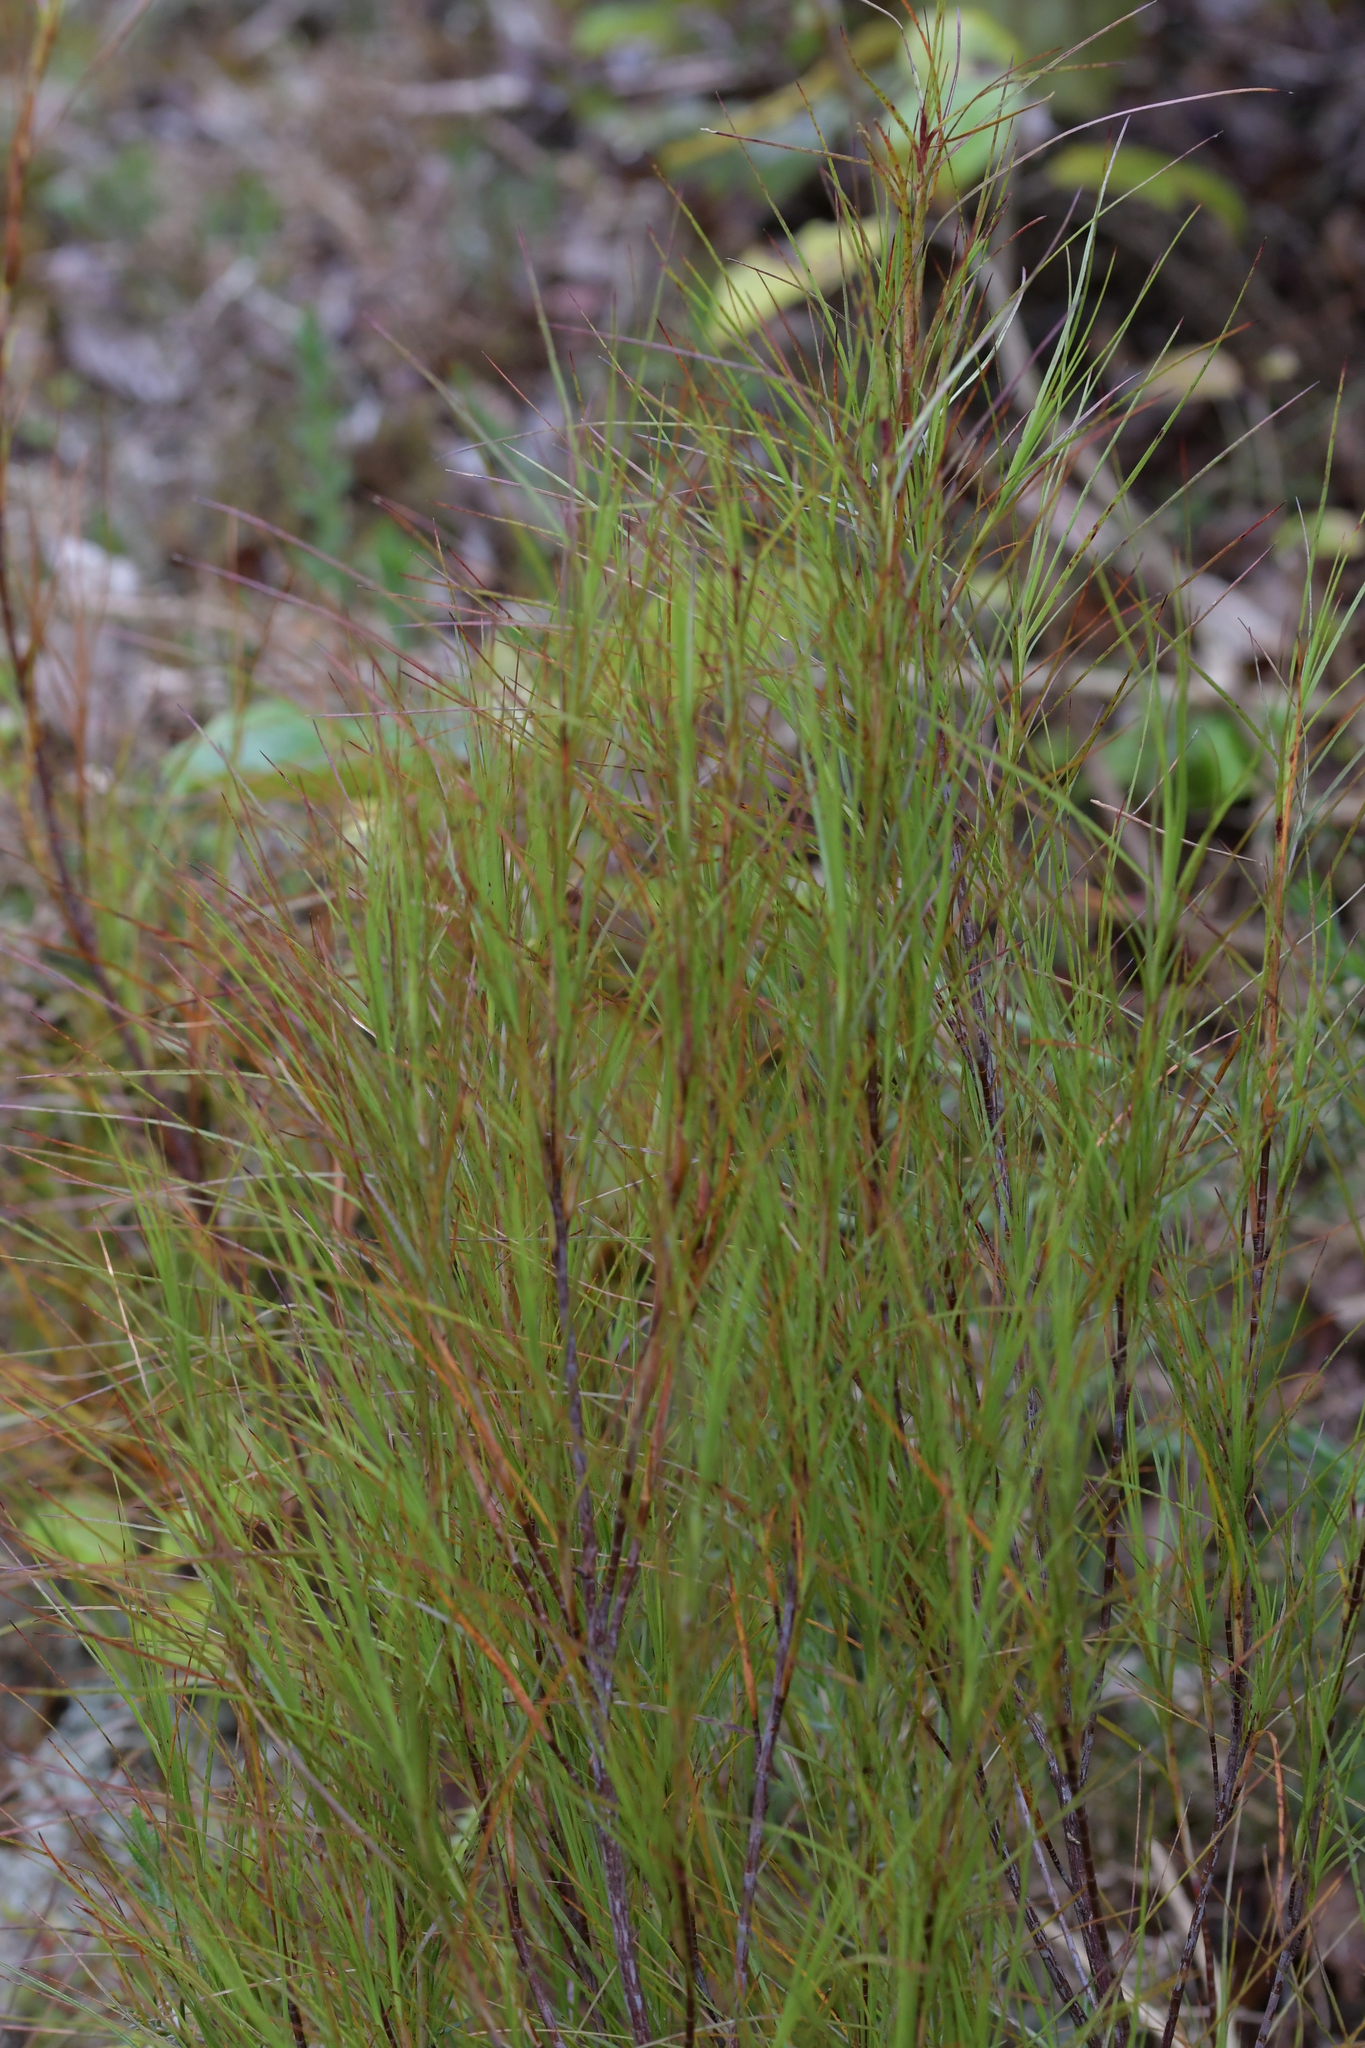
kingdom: Plantae
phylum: Tracheophyta
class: Magnoliopsida
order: Ericales
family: Ericaceae
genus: Dracophyllum
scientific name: Dracophyllum filifolium
